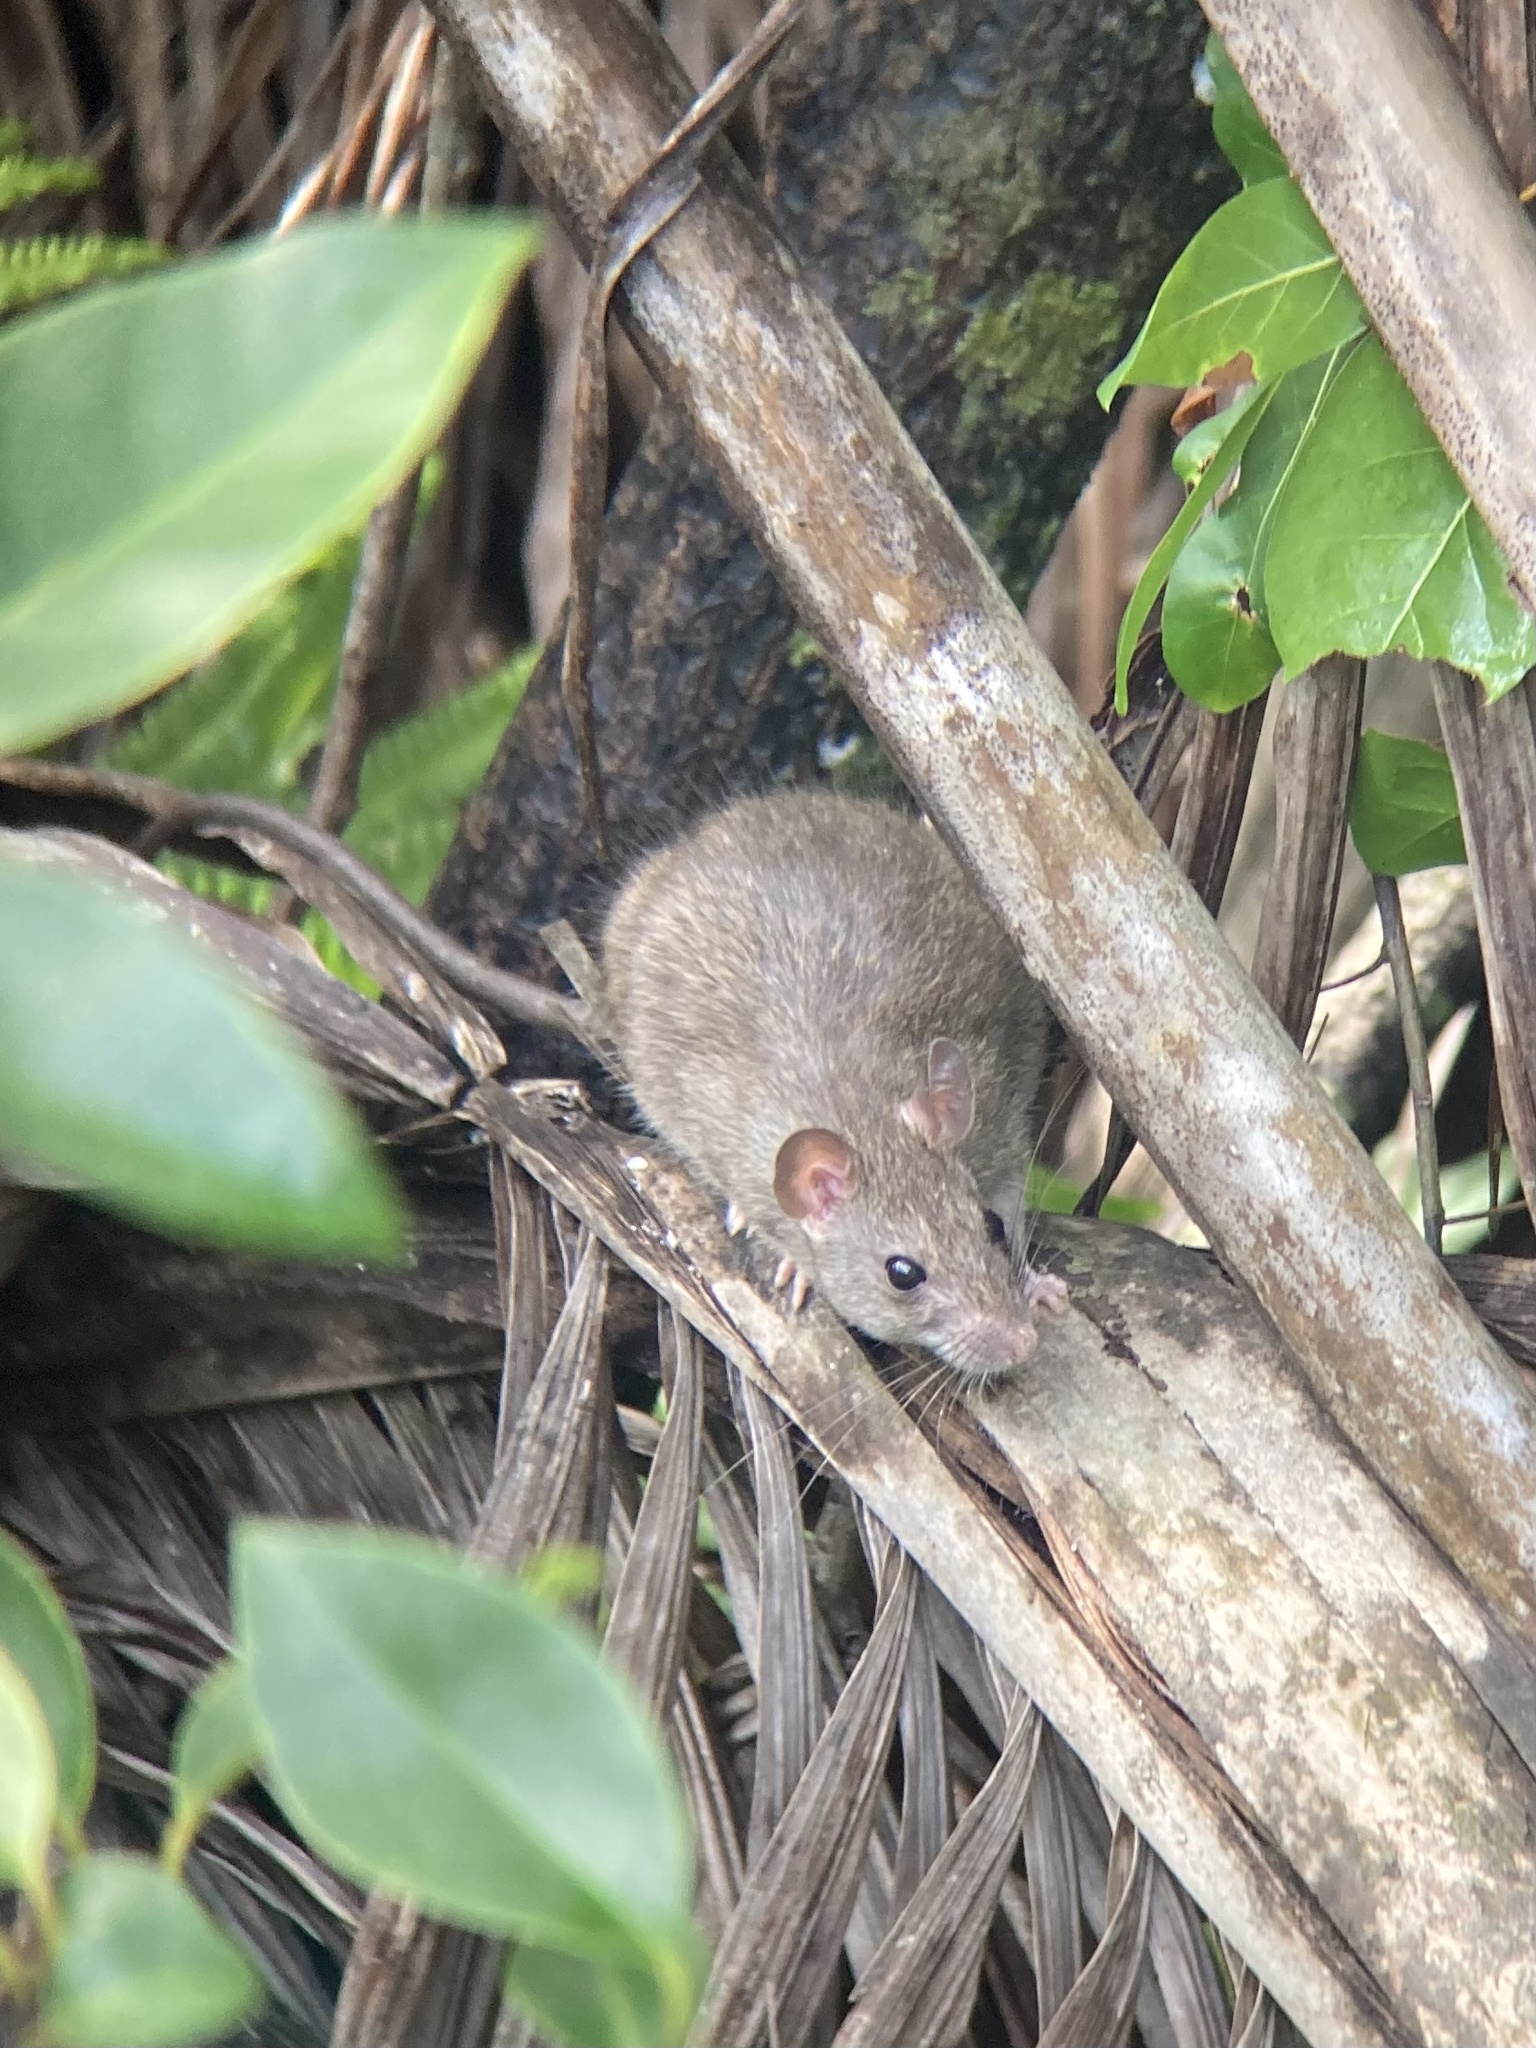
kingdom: Animalia
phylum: Chordata
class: Mammalia
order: Rodentia
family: Muridae
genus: Rattus
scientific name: Rattus rattus
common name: Black rat
